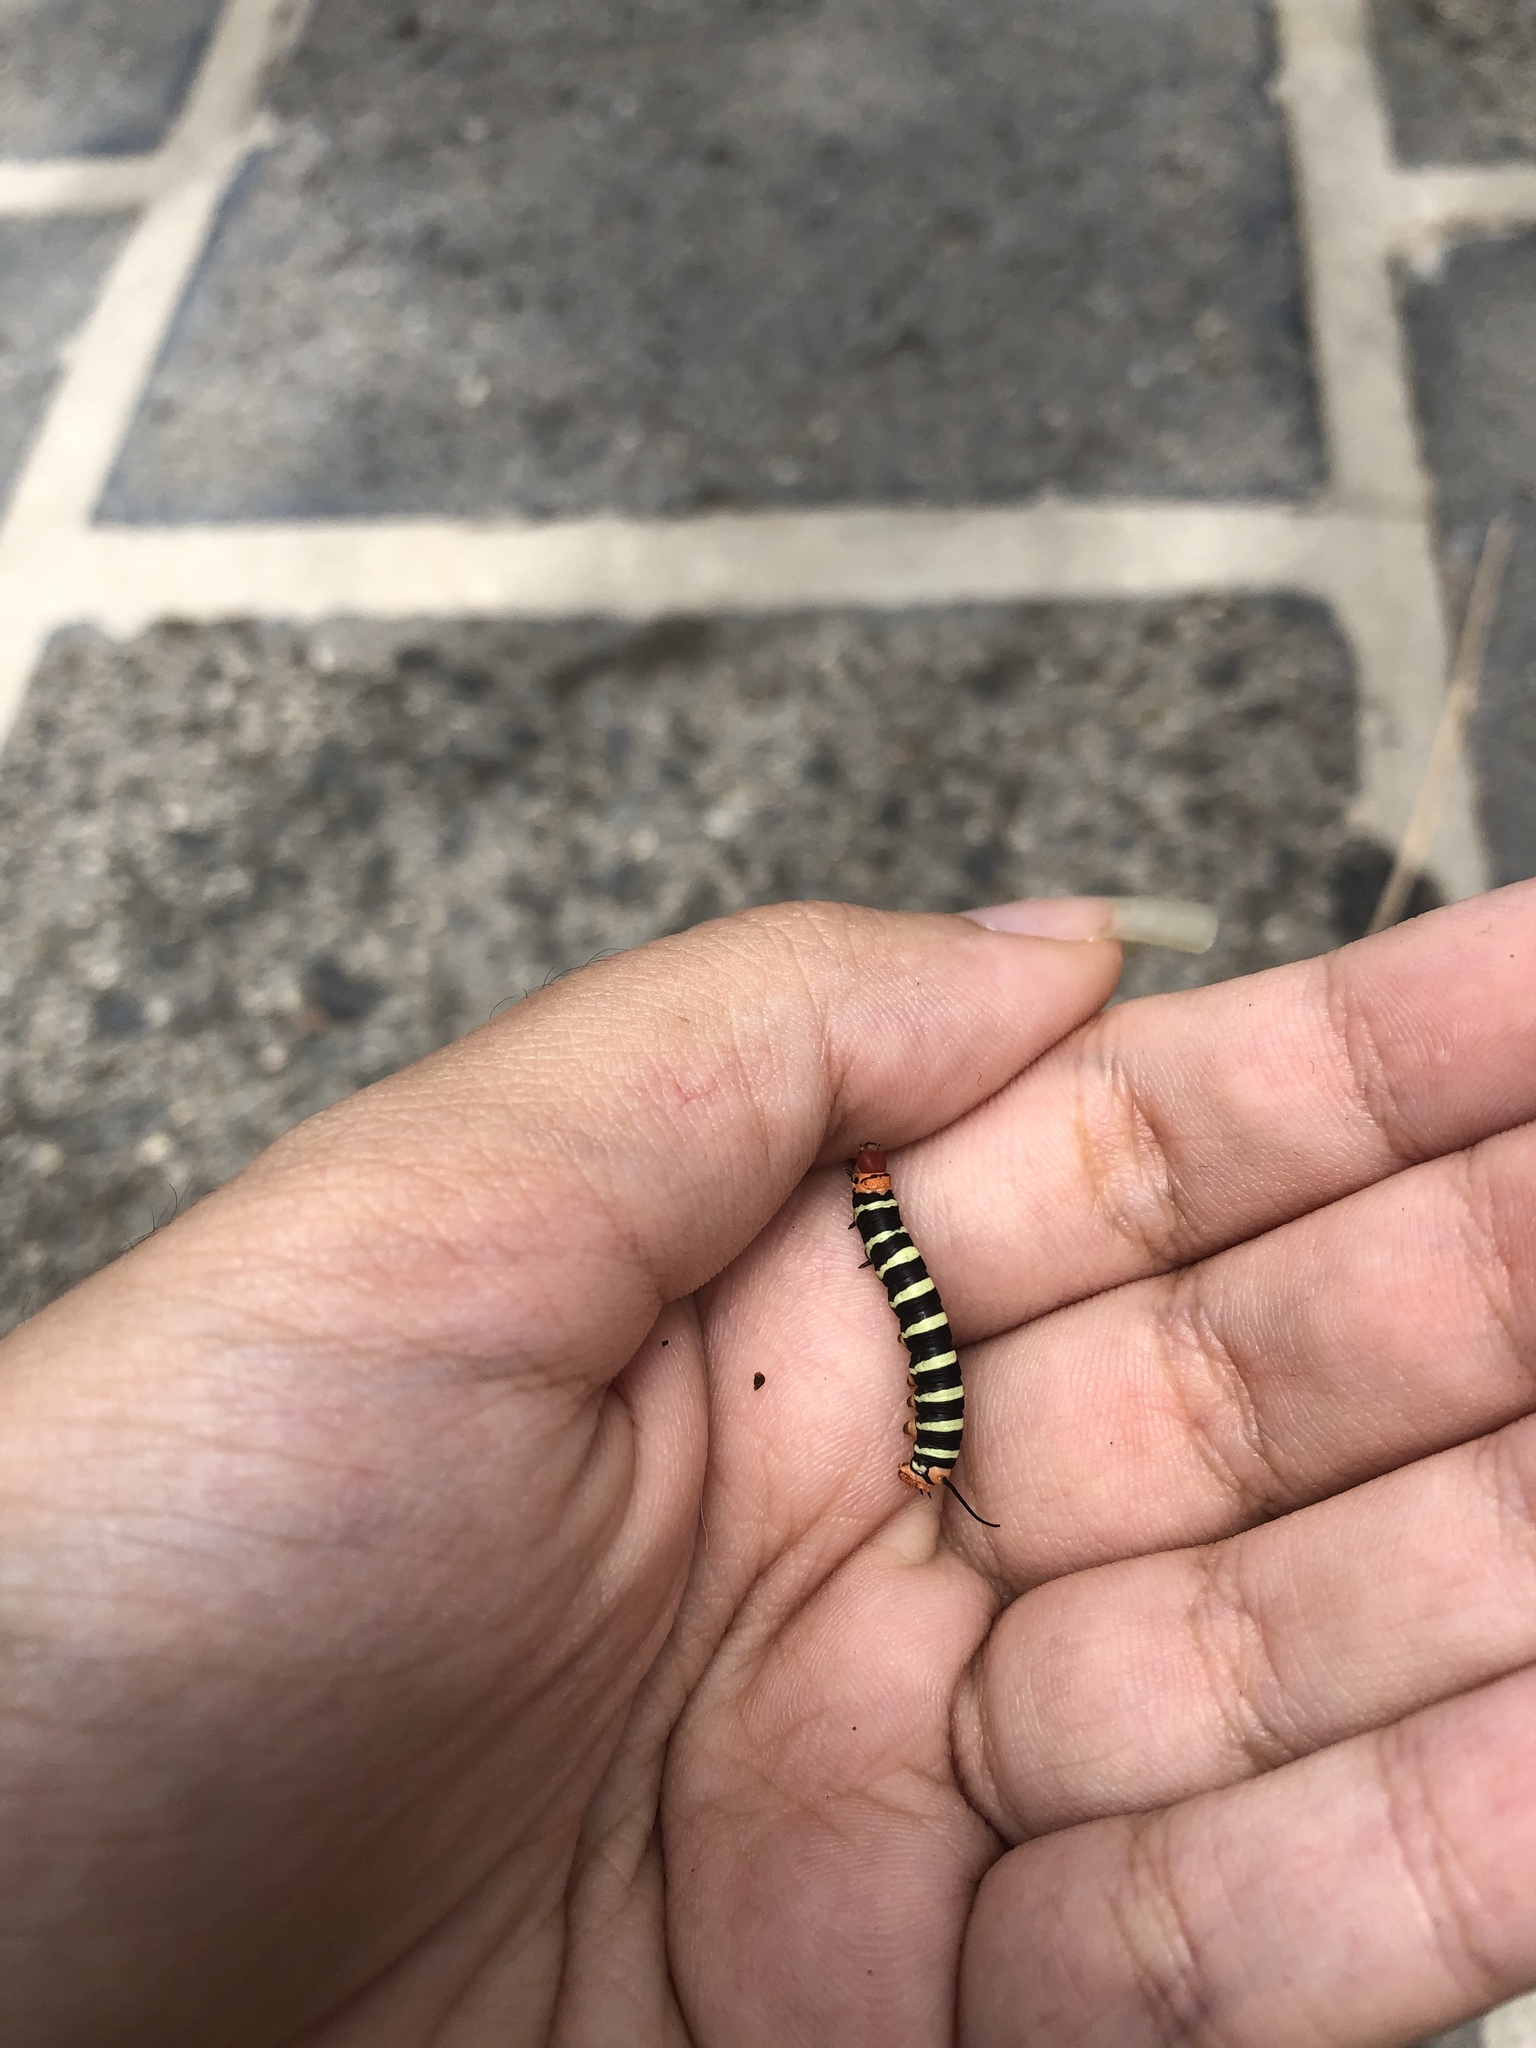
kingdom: Animalia
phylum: Arthropoda
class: Insecta
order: Lepidoptera
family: Sphingidae
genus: Pseudosphinx
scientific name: Pseudosphinx tetrio
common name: Tetrio sphinx
